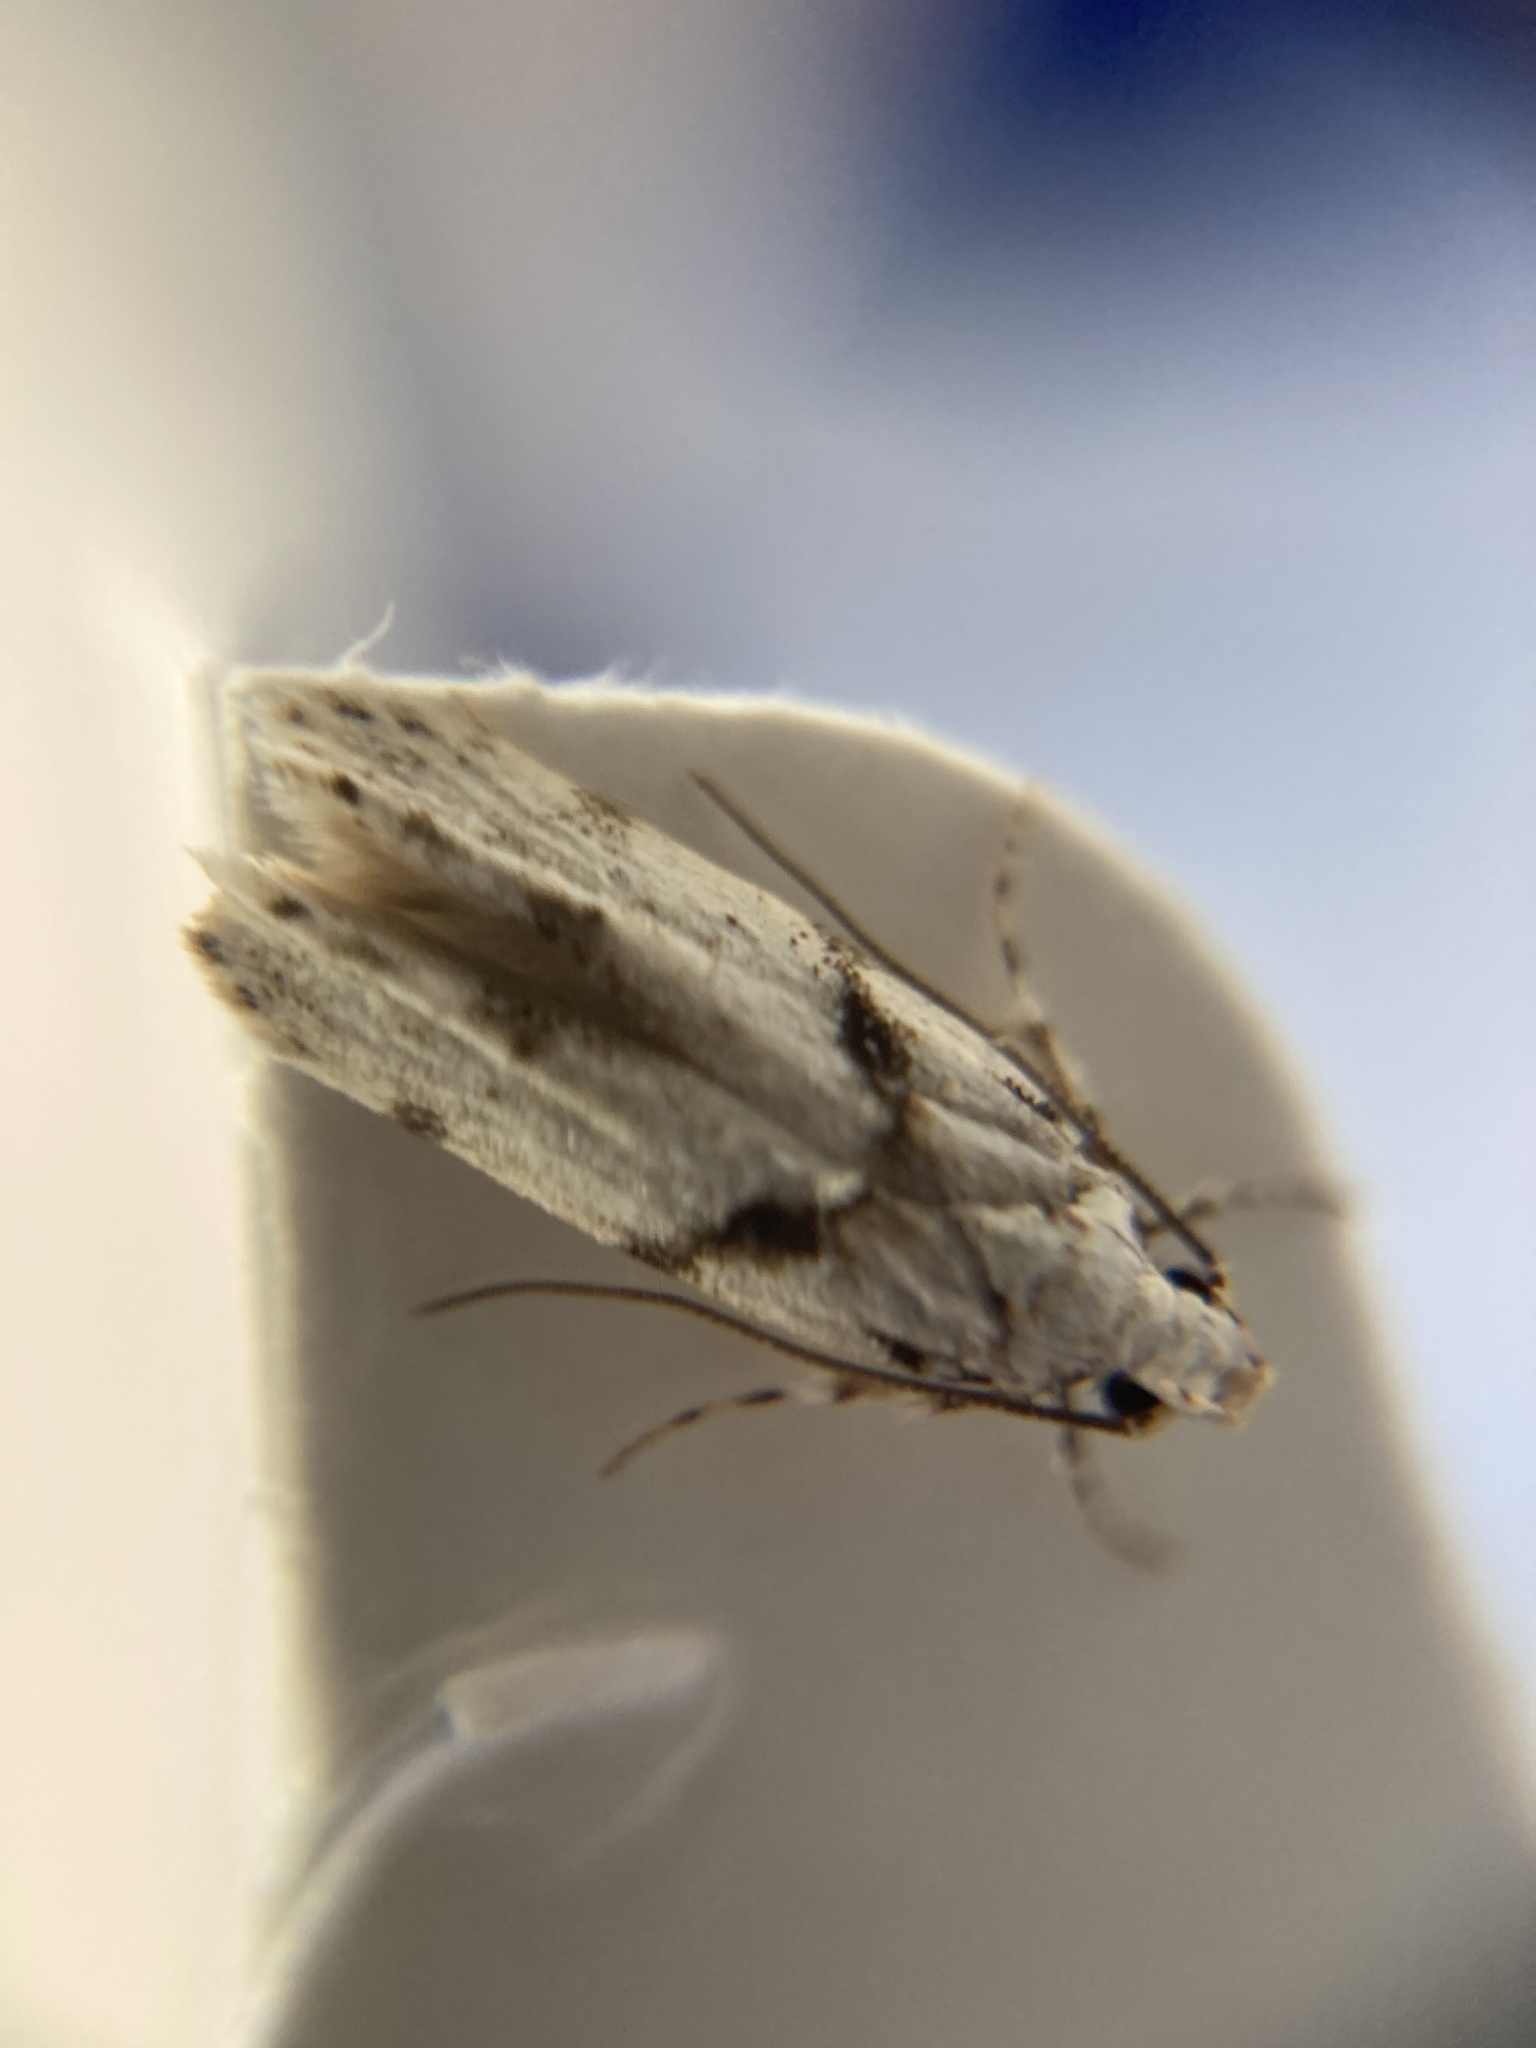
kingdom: Animalia
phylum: Arthropoda
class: Insecta
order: Lepidoptera
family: Gelechiidae
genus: Arogalea
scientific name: Arogalea cristifasciella
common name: White stripe-backed moth
